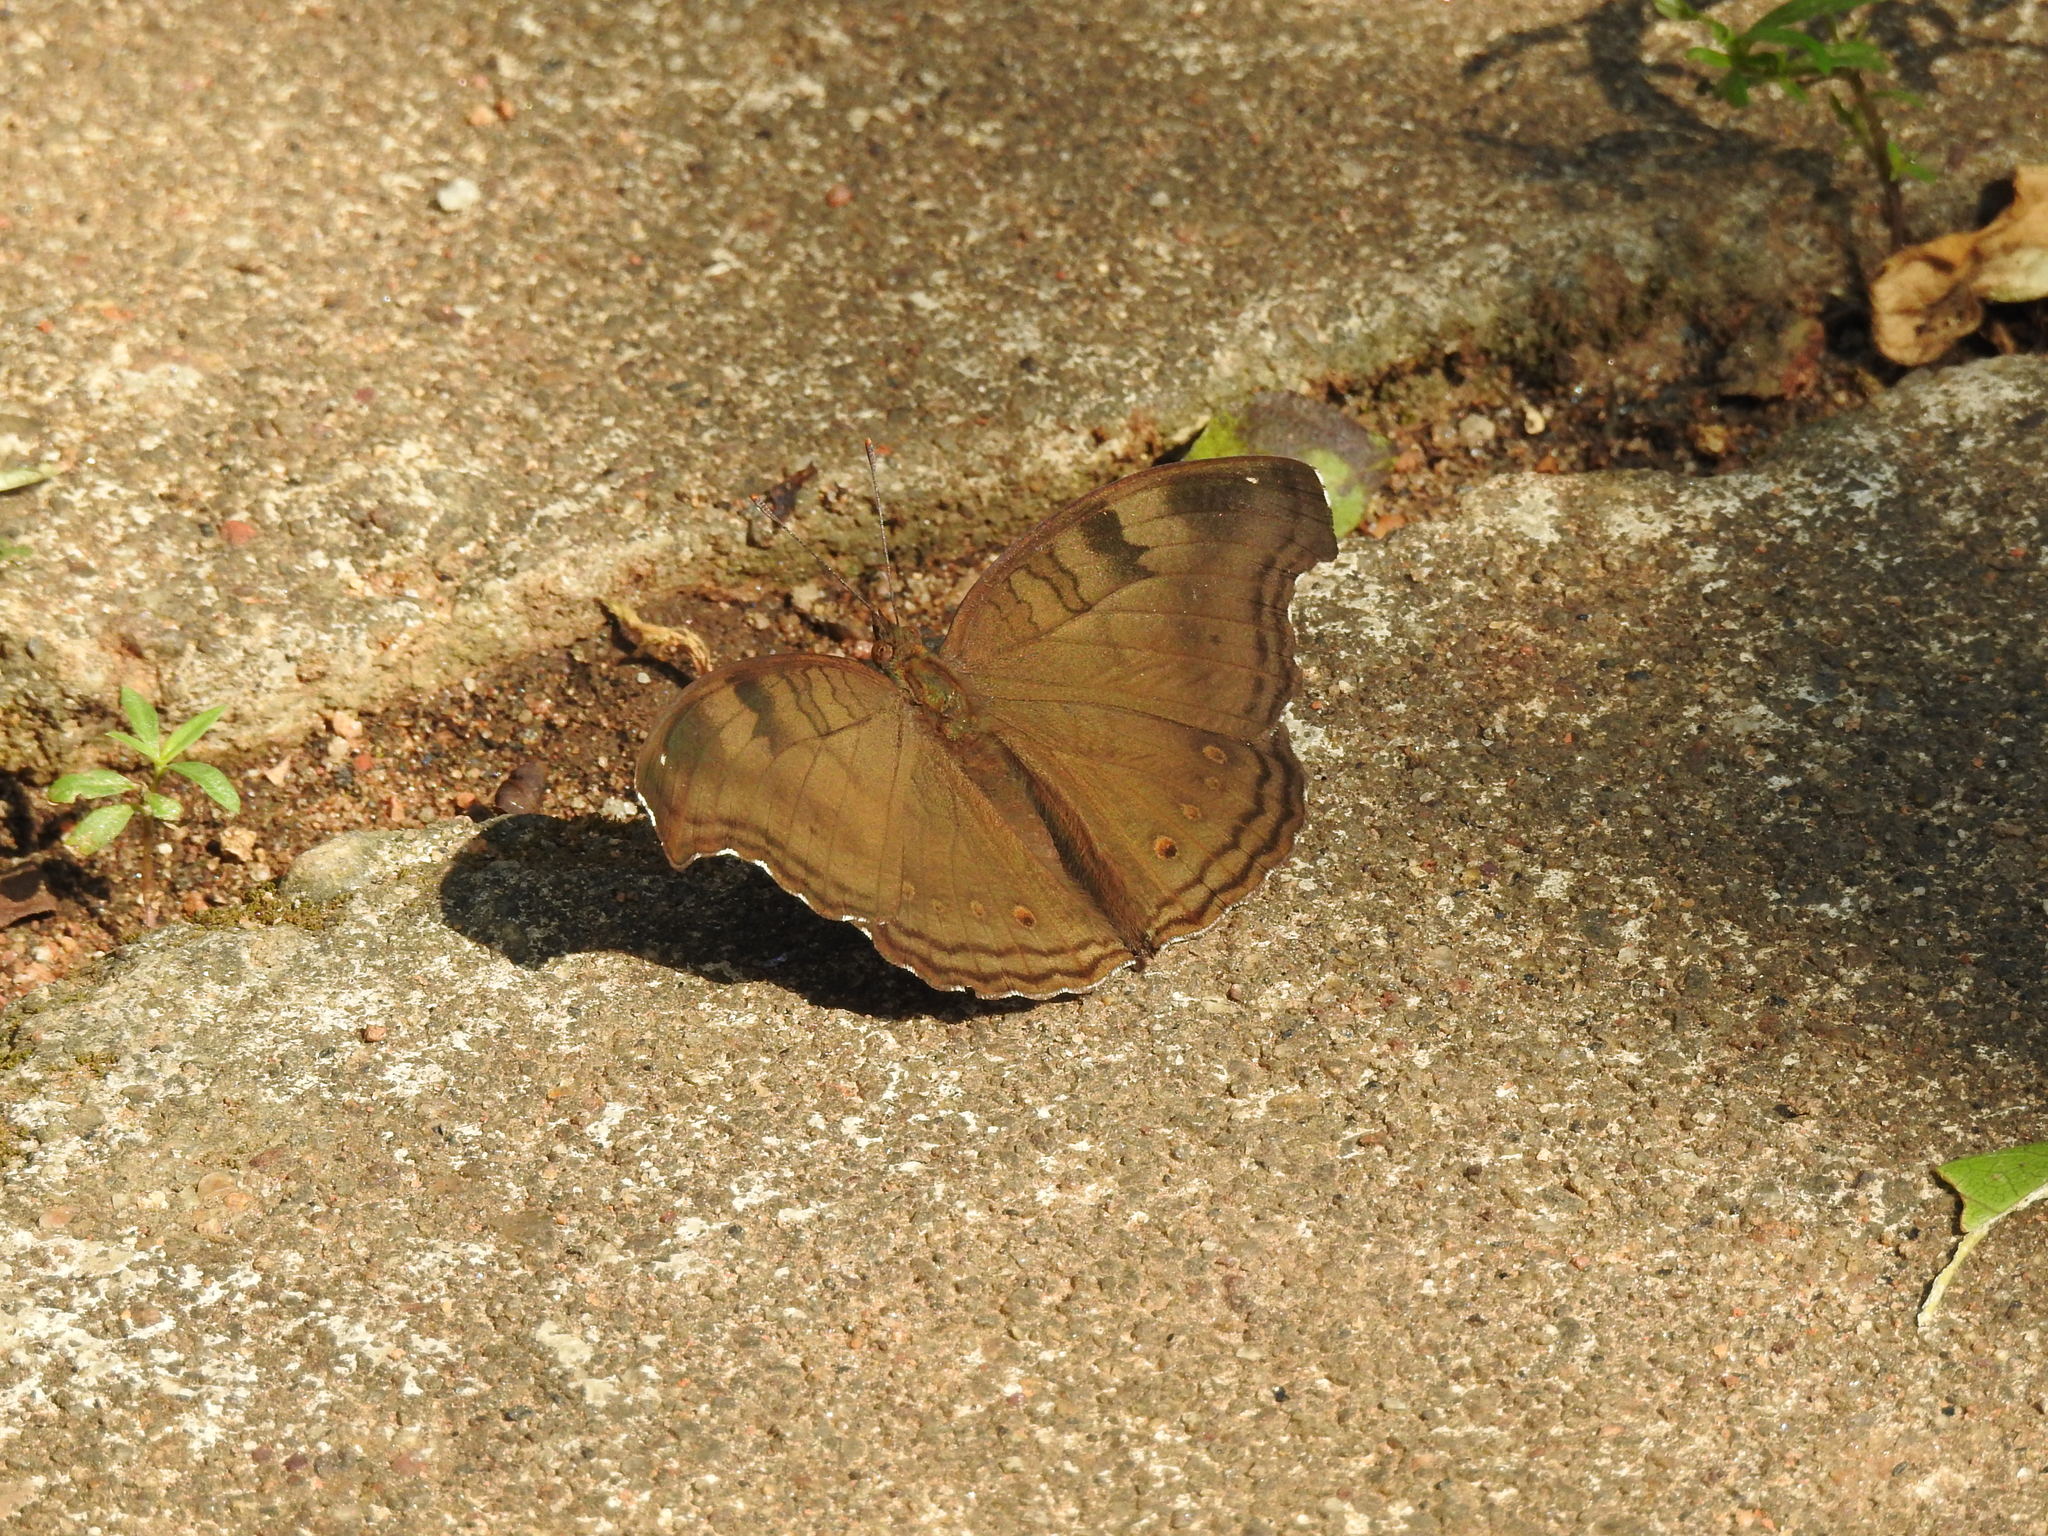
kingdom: Animalia
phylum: Arthropoda
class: Insecta
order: Lepidoptera
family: Nymphalidae
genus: Junonia
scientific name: Junonia iphita
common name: Chocolate pansy
